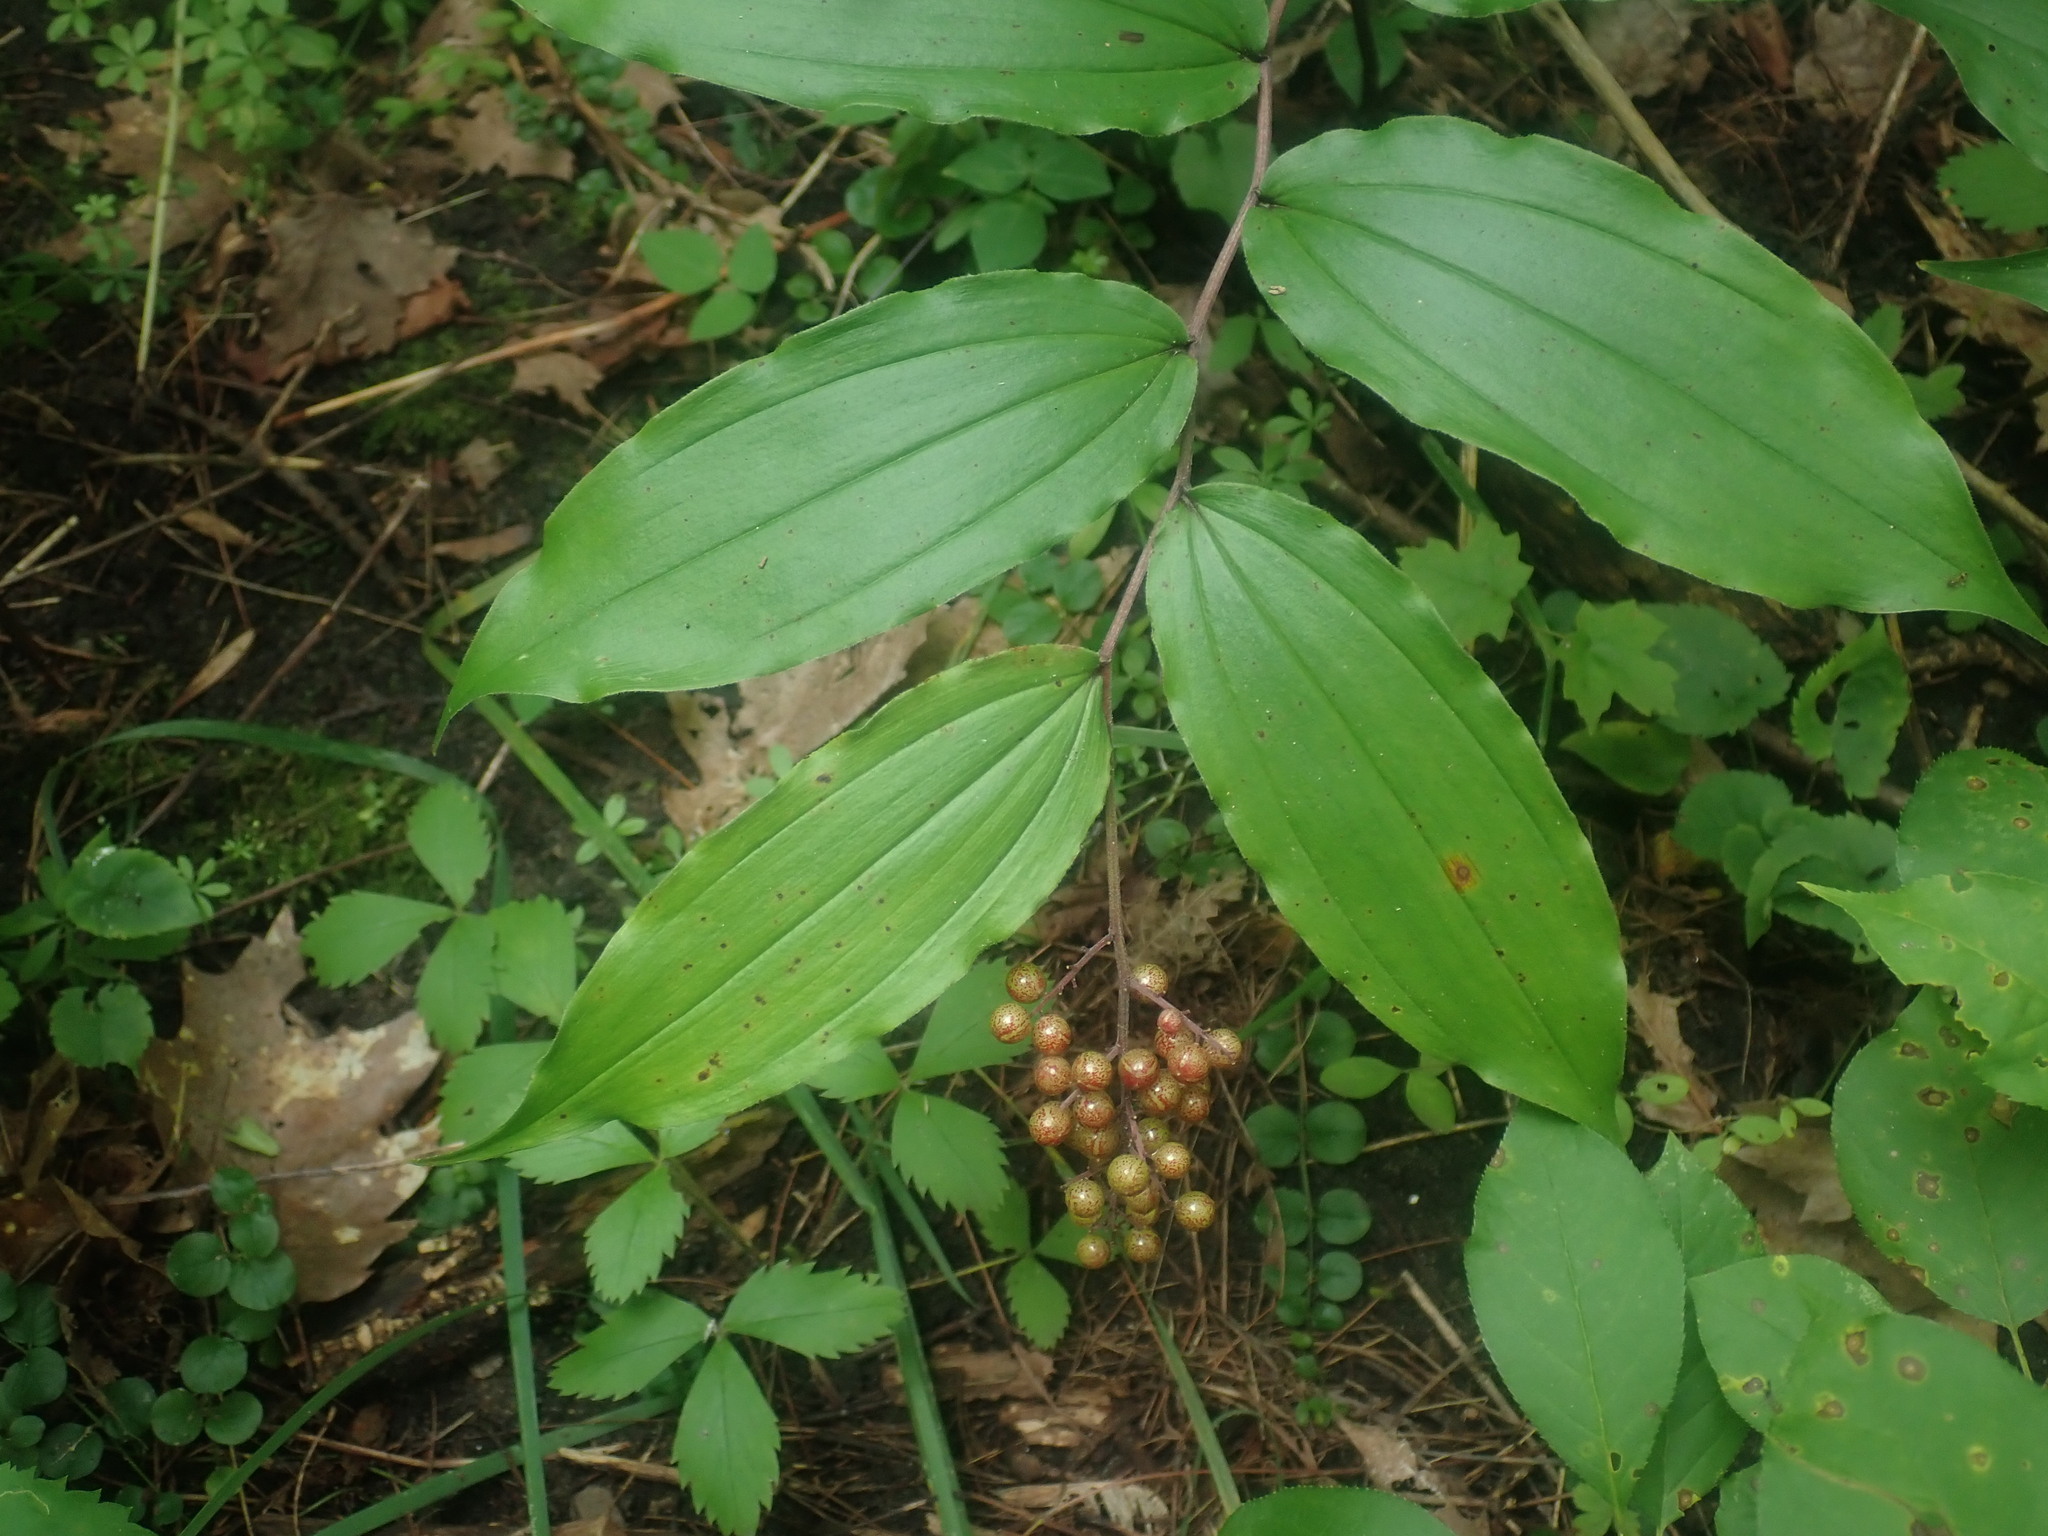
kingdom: Plantae
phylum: Tracheophyta
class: Liliopsida
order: Asparagales
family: Asparagaceae
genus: Maianthemum
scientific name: Maianthemum racemosum
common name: False spikenard
